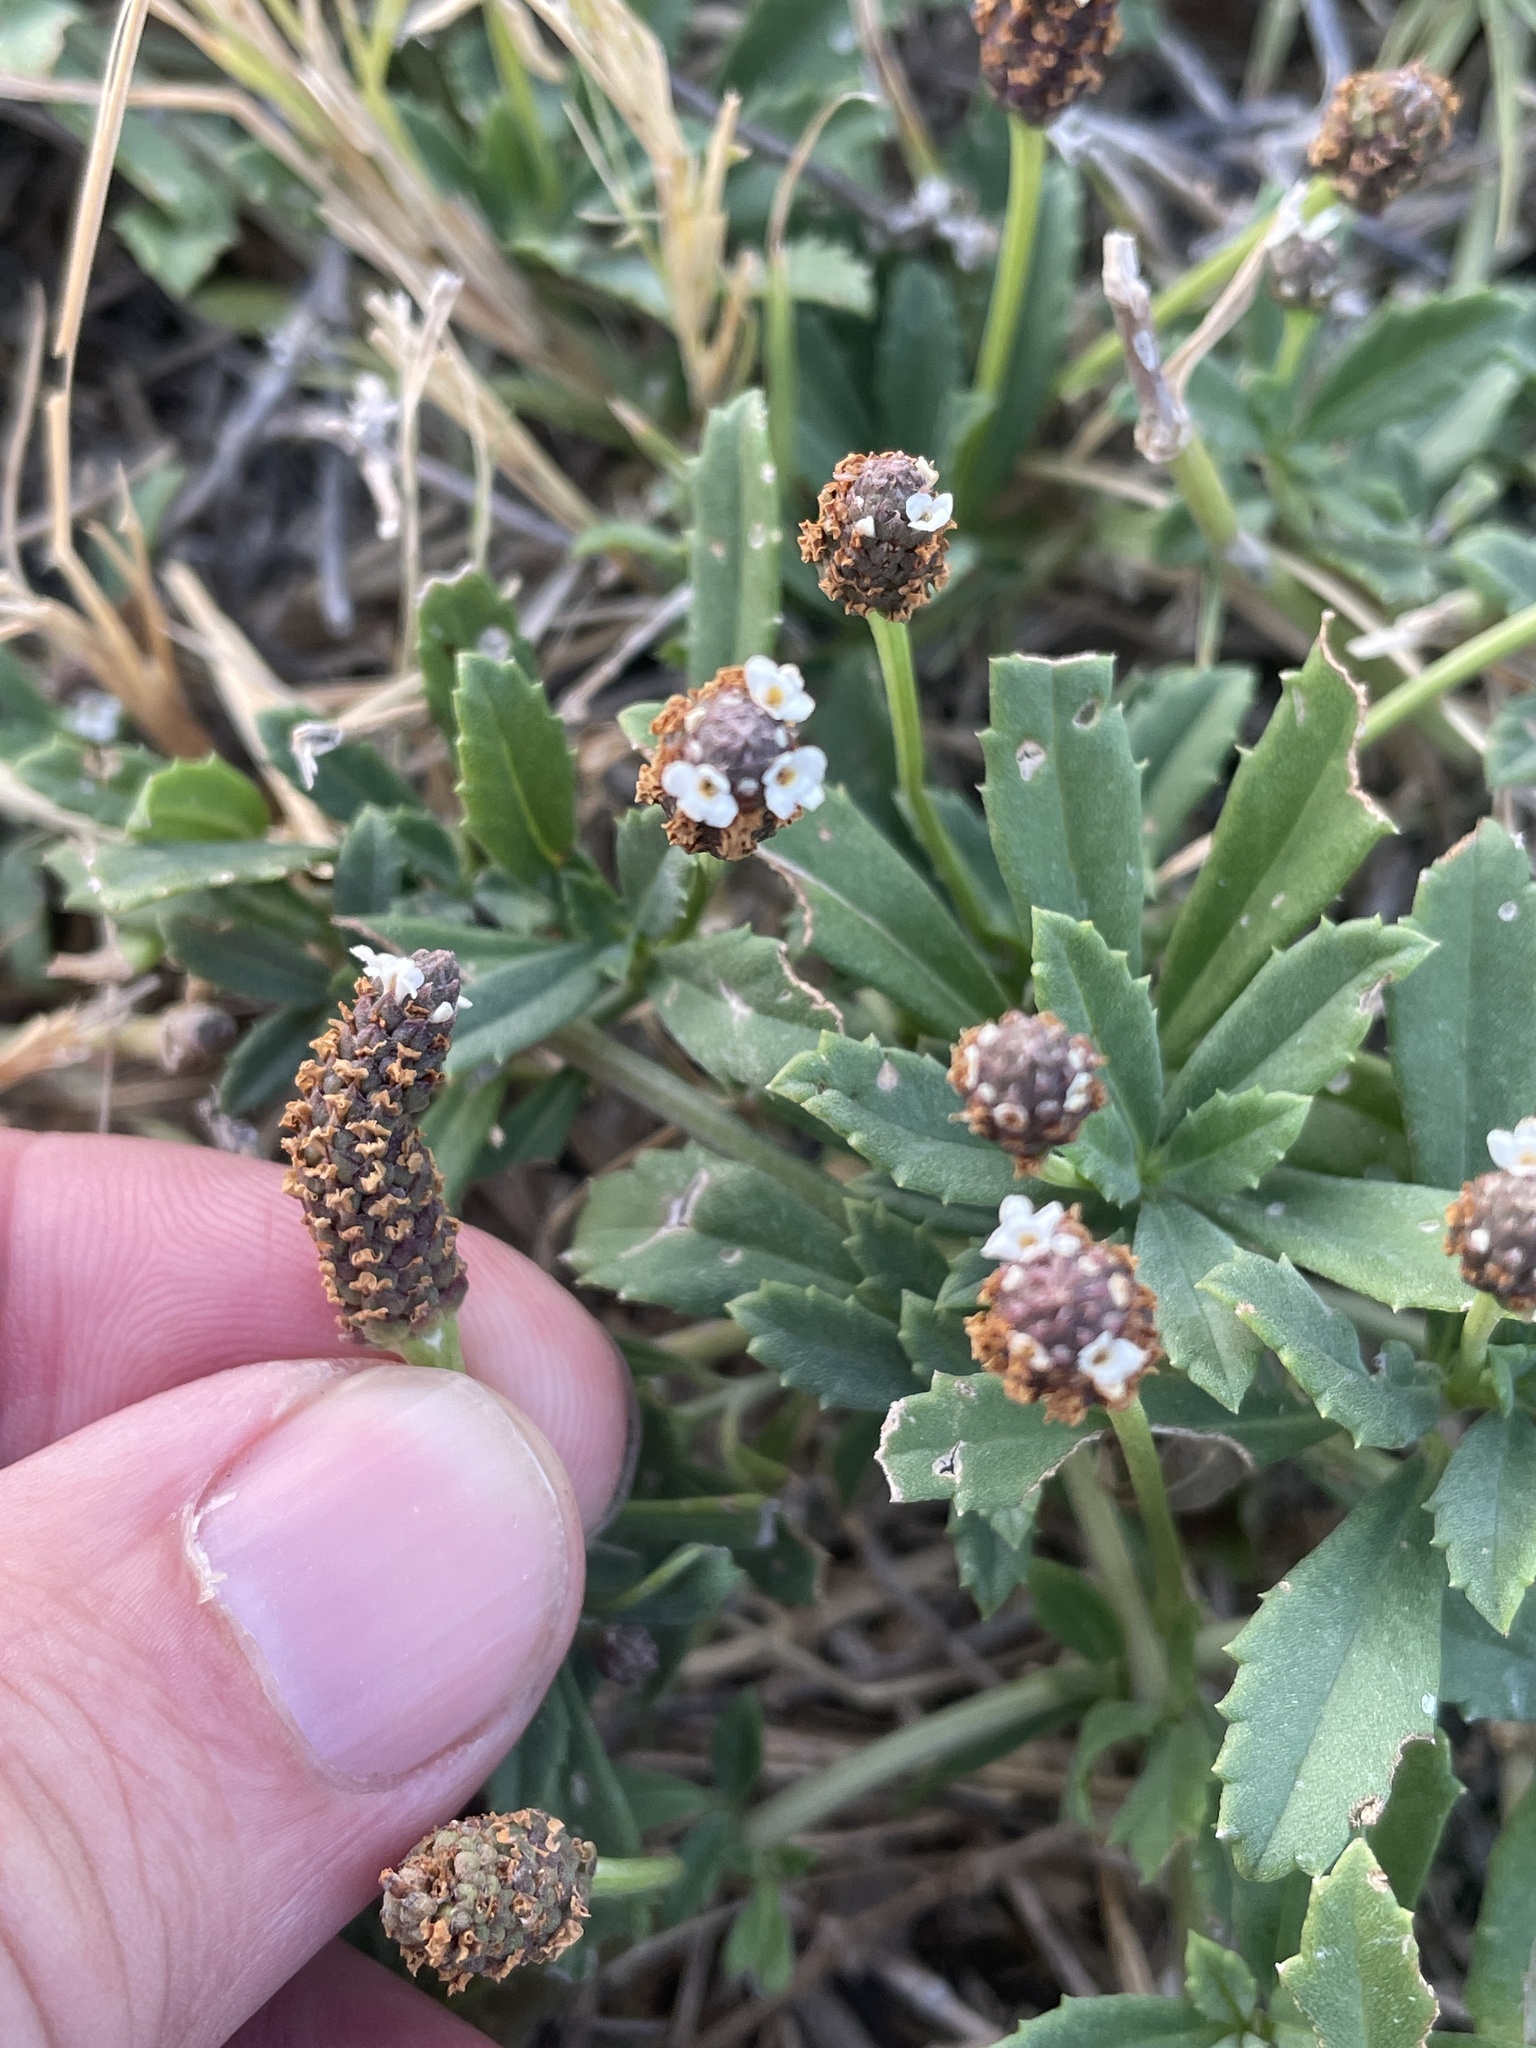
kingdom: Plantae
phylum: Tracheophyta
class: Magnoliopsida
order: Lamiales
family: Verbenaceae
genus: Phyla
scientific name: Phyla nodiflora
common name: Frogfruit
